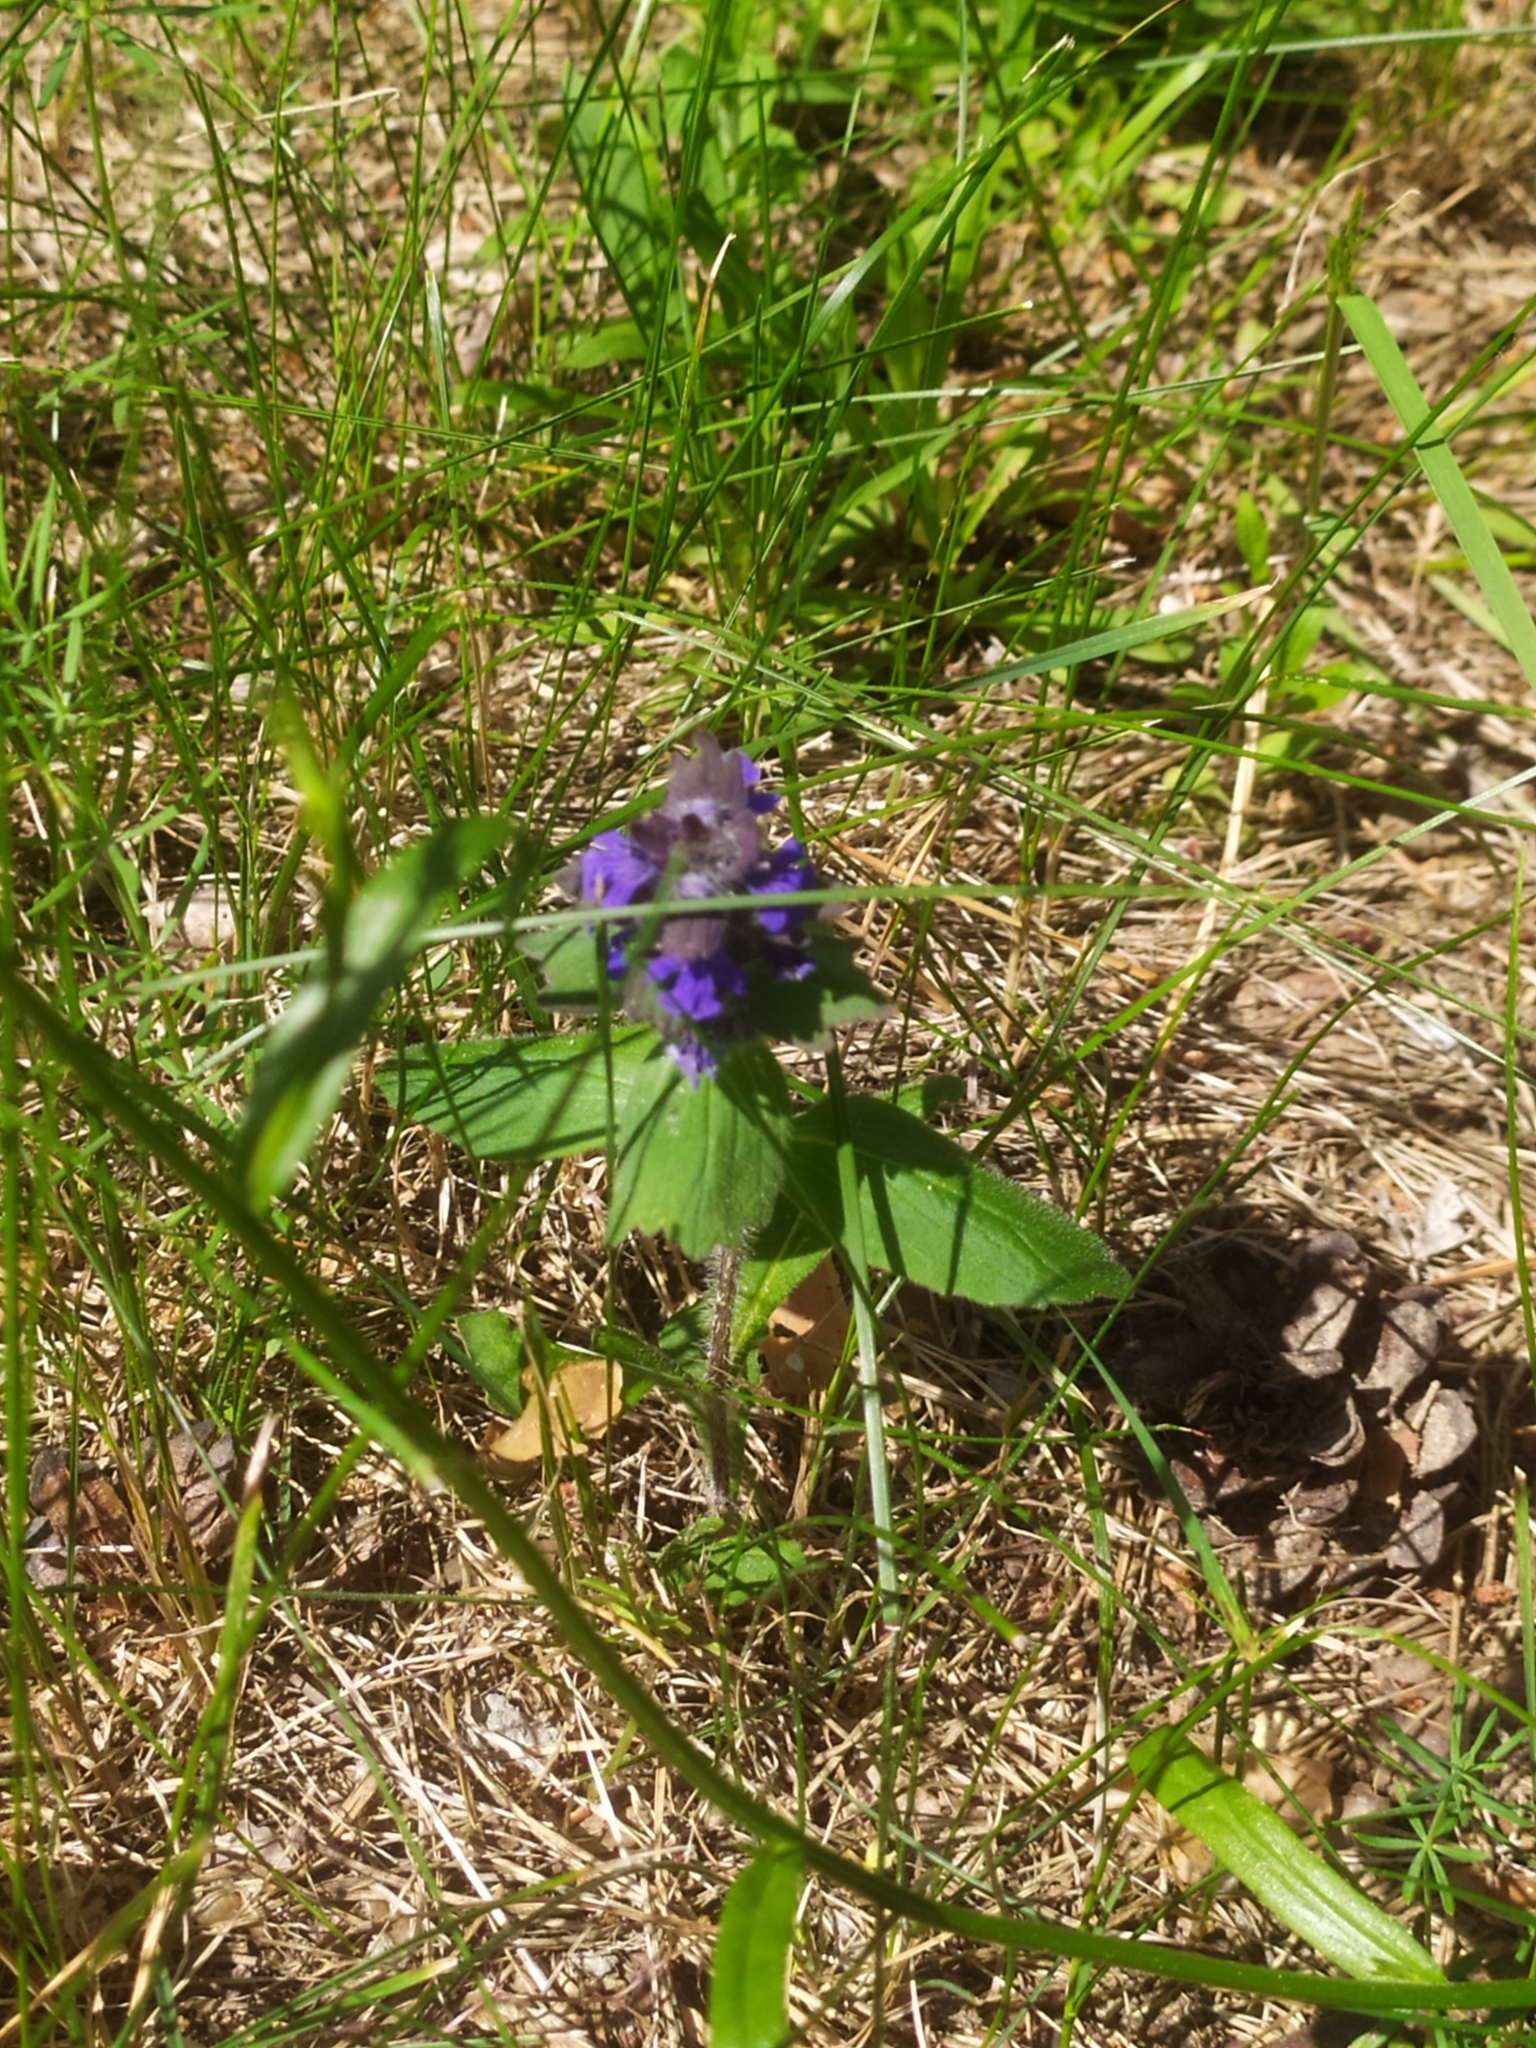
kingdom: Plantae
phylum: Tracheophyta
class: Magnoliopsida
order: Lamiales
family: Lamiaceae
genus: Ajuga
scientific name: Ajuga genevensis
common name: Blue bugle
